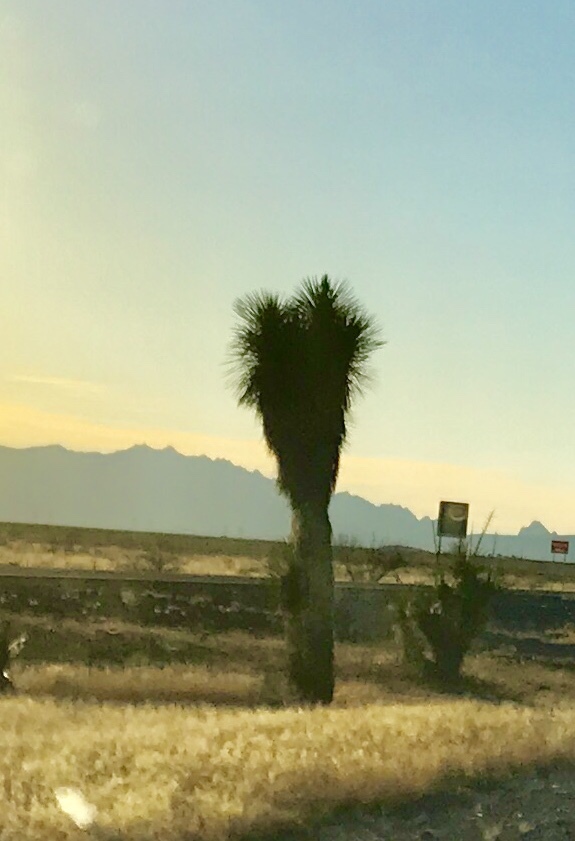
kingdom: Plantae
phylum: Tracheophyta
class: Liliopsida
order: Asparagales
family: Asparagaceae
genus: Yucca
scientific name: Yucca elata
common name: Palmella
